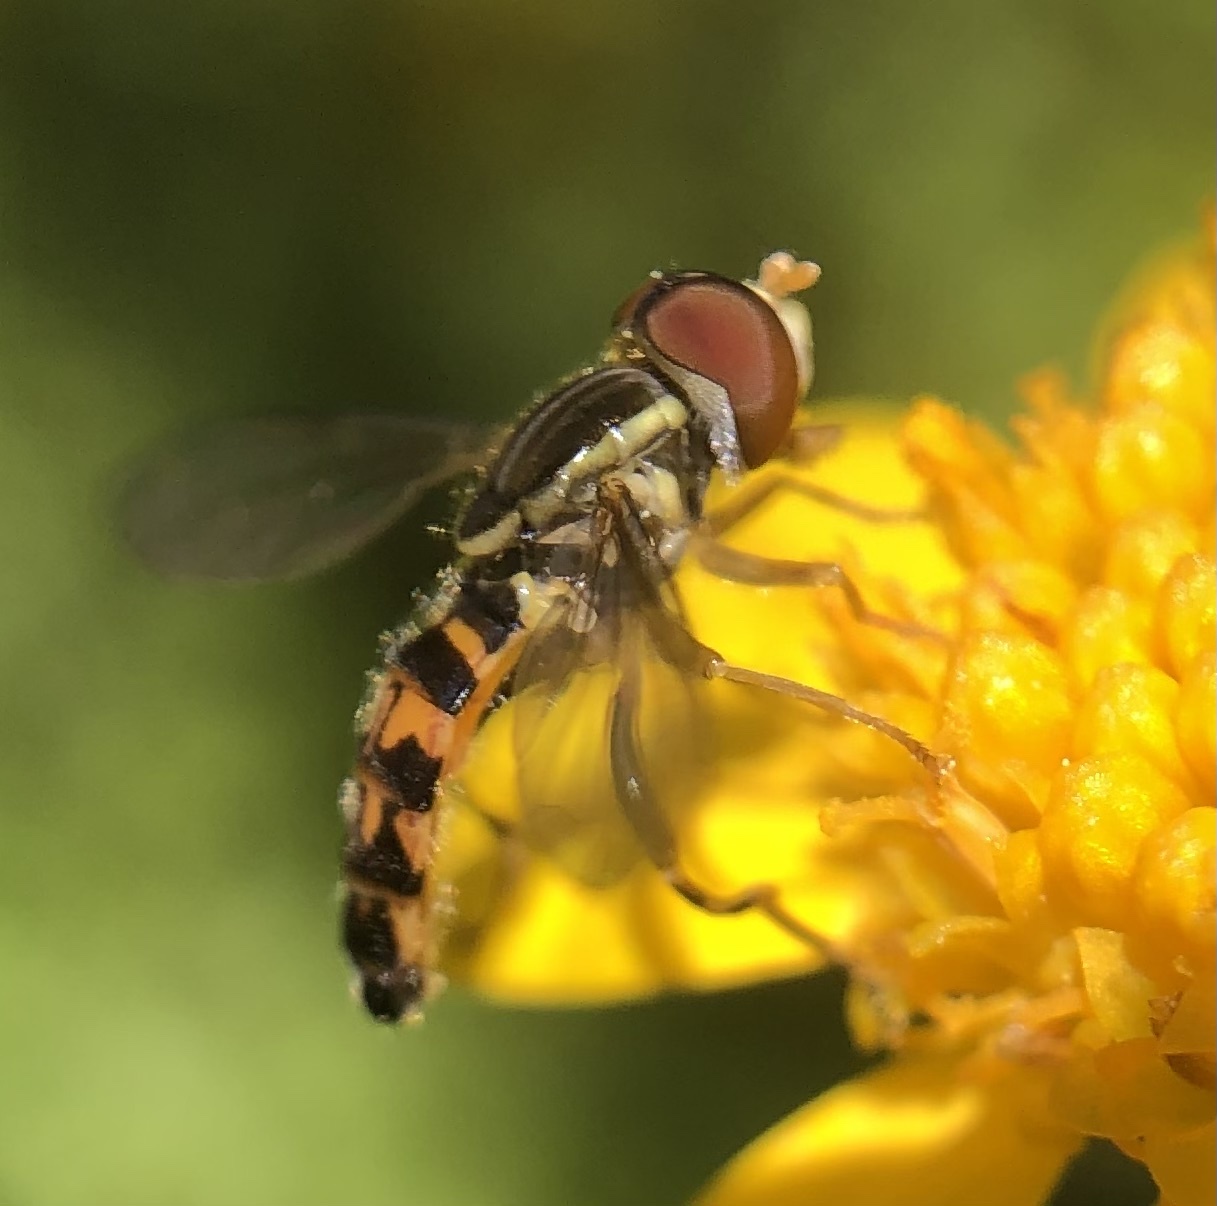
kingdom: Animalia
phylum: Arthropoda
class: Insecta
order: Diptera
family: Syrphidae
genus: Toxomerus
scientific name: Toxomerus geminatus
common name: Eastern calligrapher
